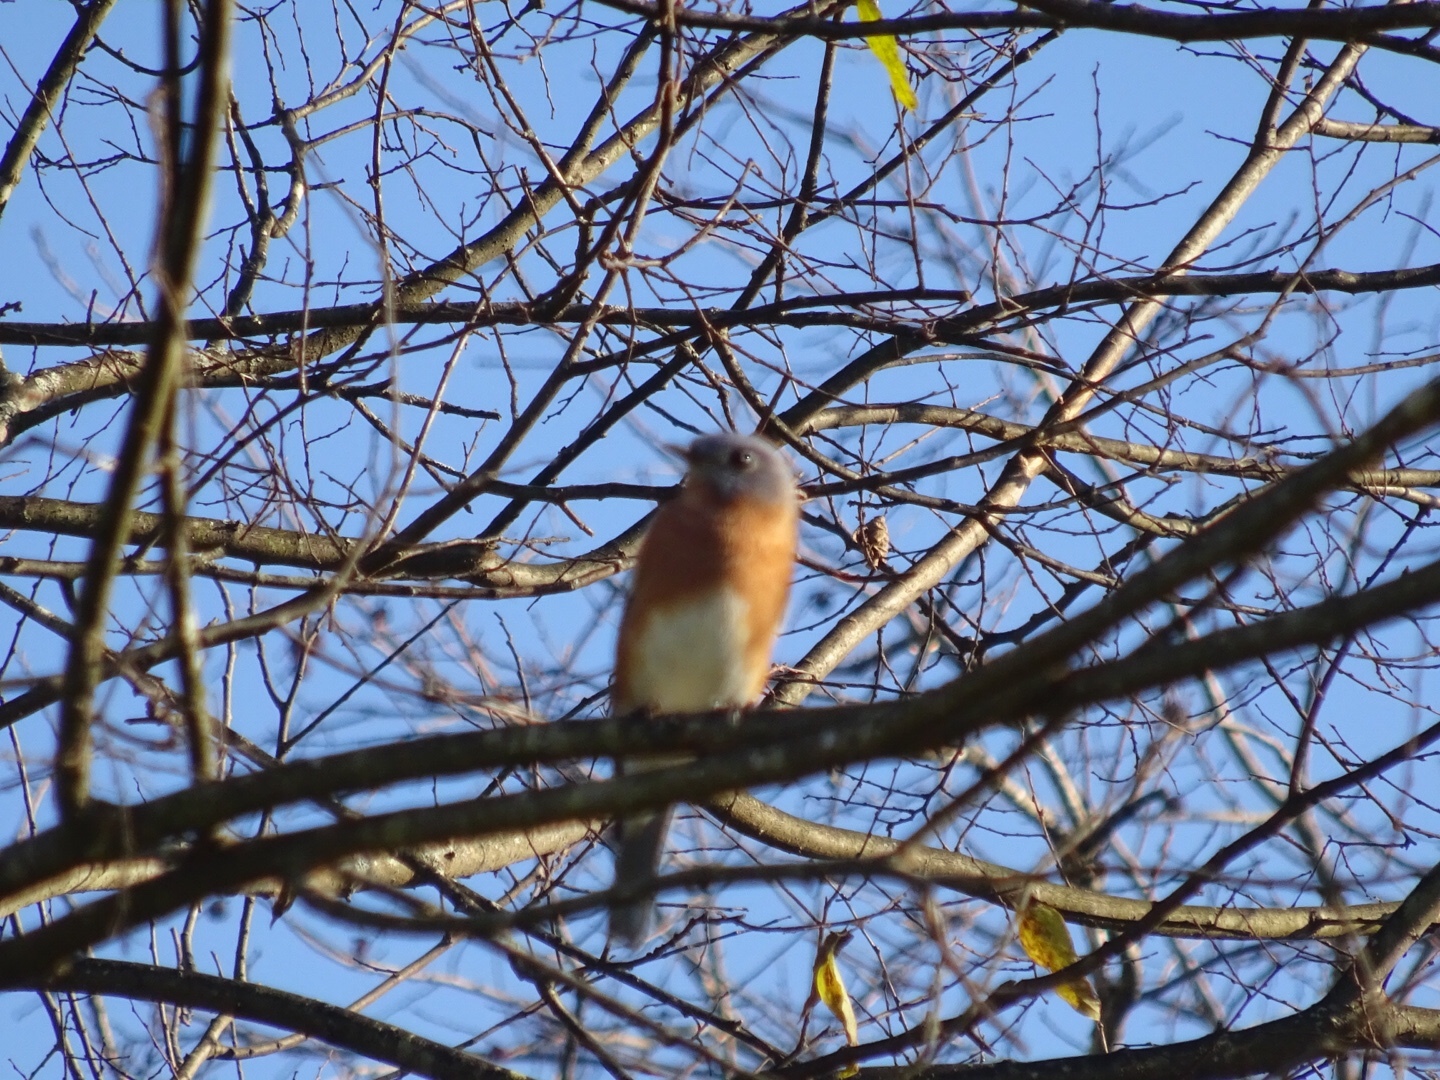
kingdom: Animalia
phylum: Chordata
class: Aves
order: Passeriformes
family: Turdidae
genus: Sialia
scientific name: Sialia sialis
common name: Eastern bluebird
